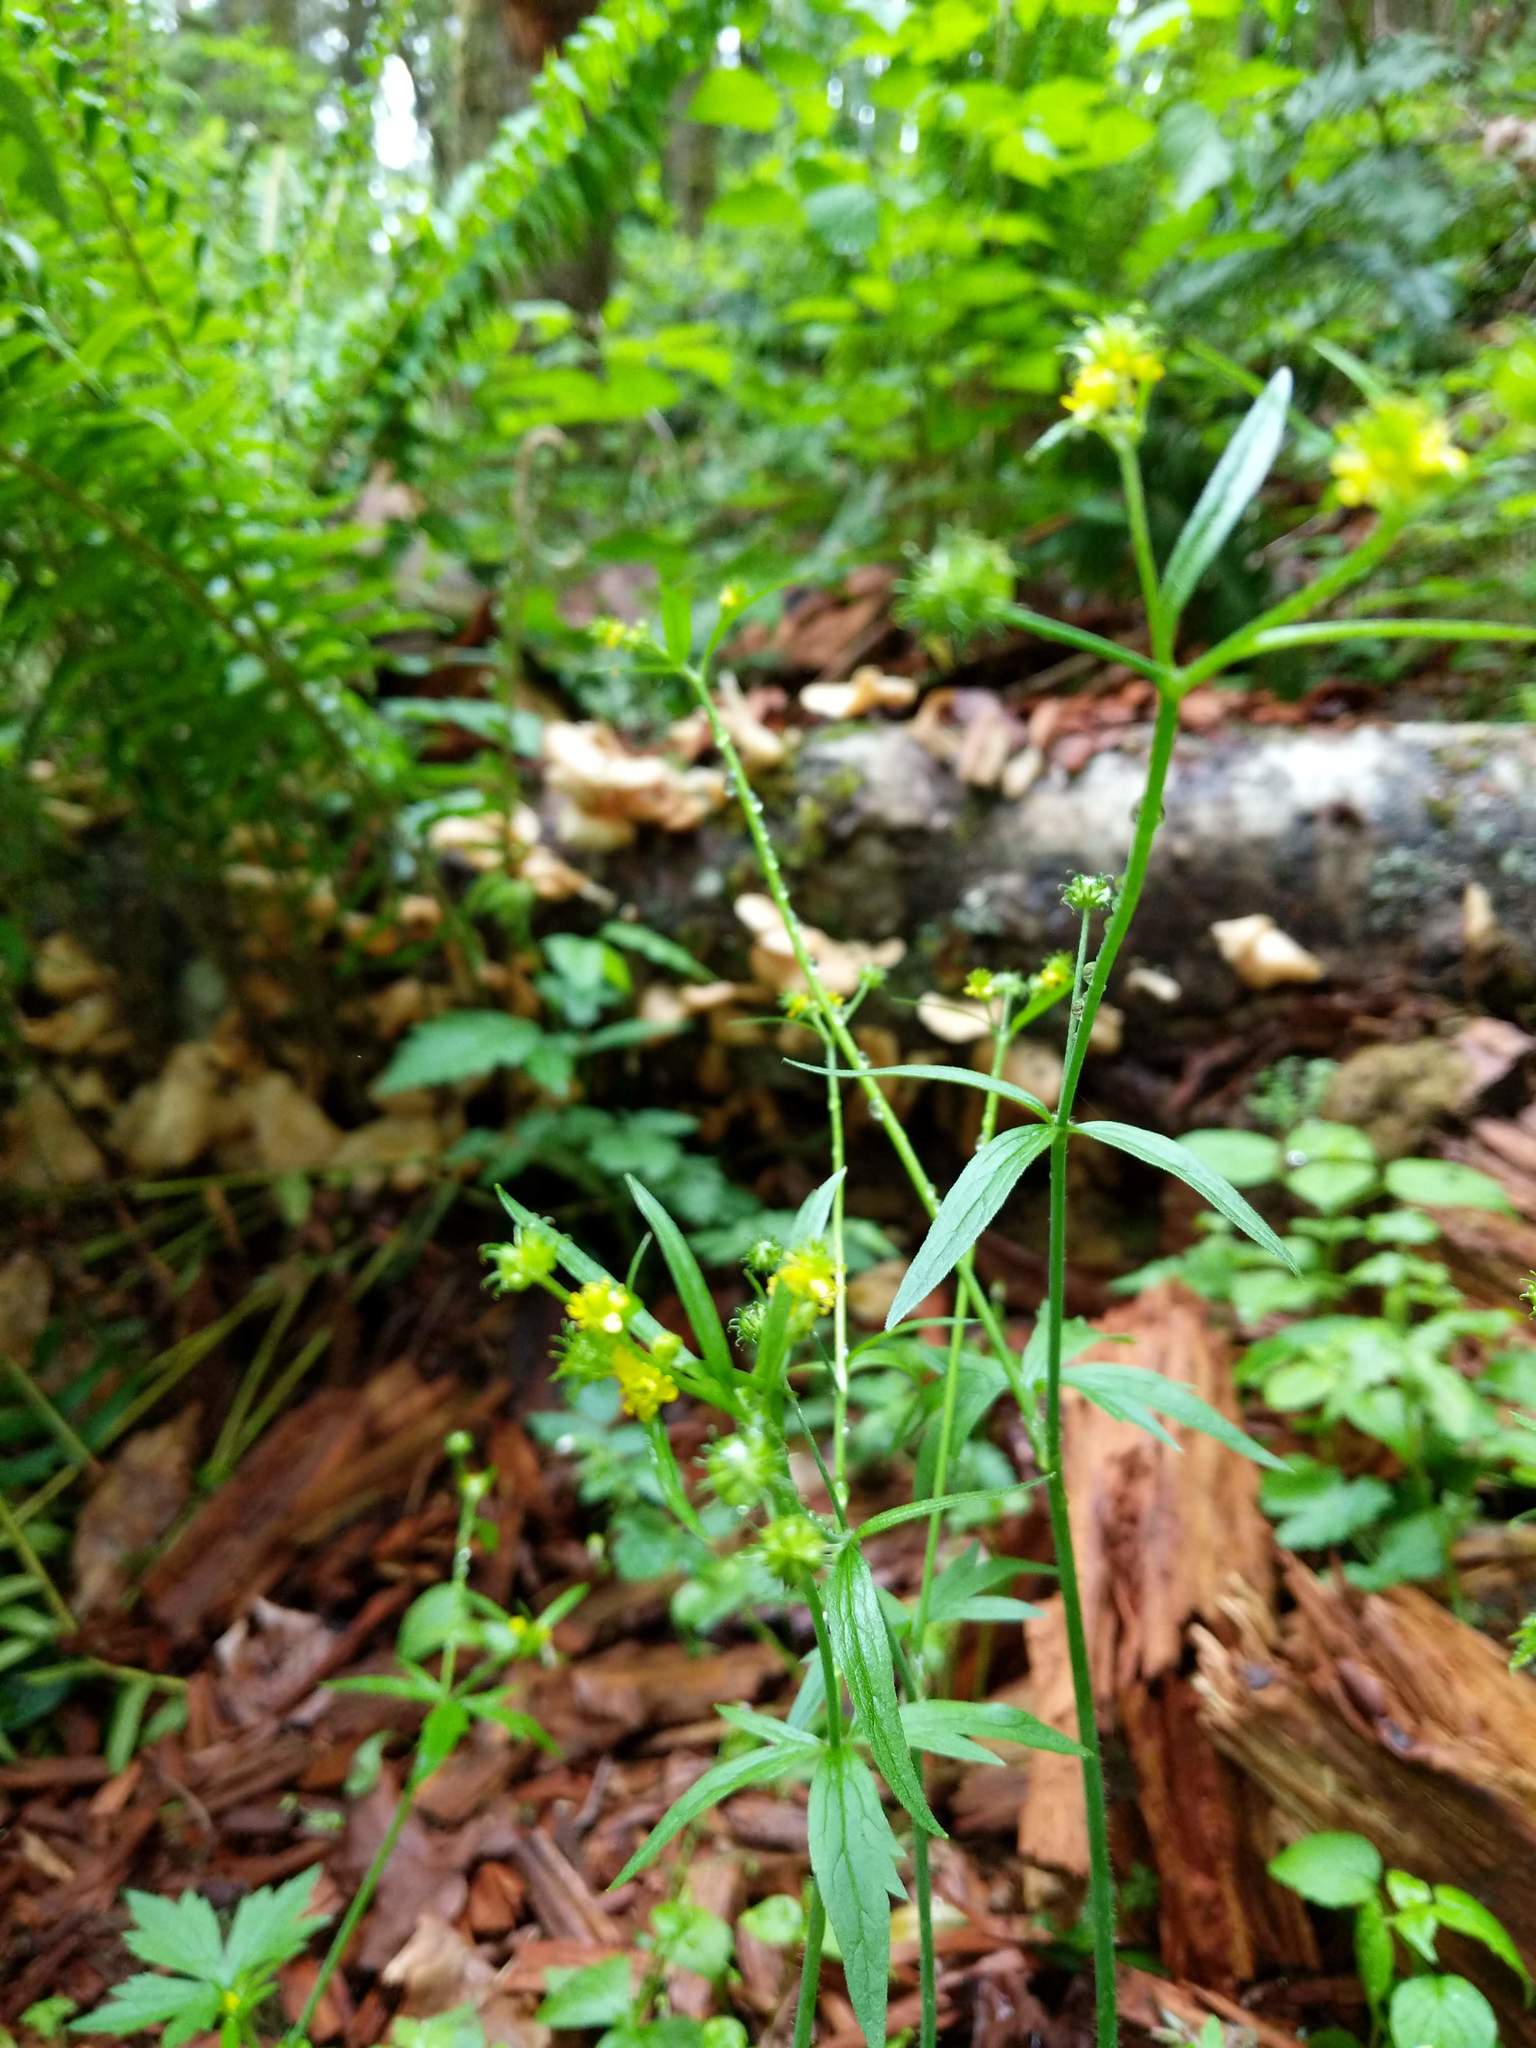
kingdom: Plantae
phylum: Tracheophyta
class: Magnoliopsida
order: Ranunculales
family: Ranunculaceae
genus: Ranunculus
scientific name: Ranunculus uncinatus
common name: Little buttercup
